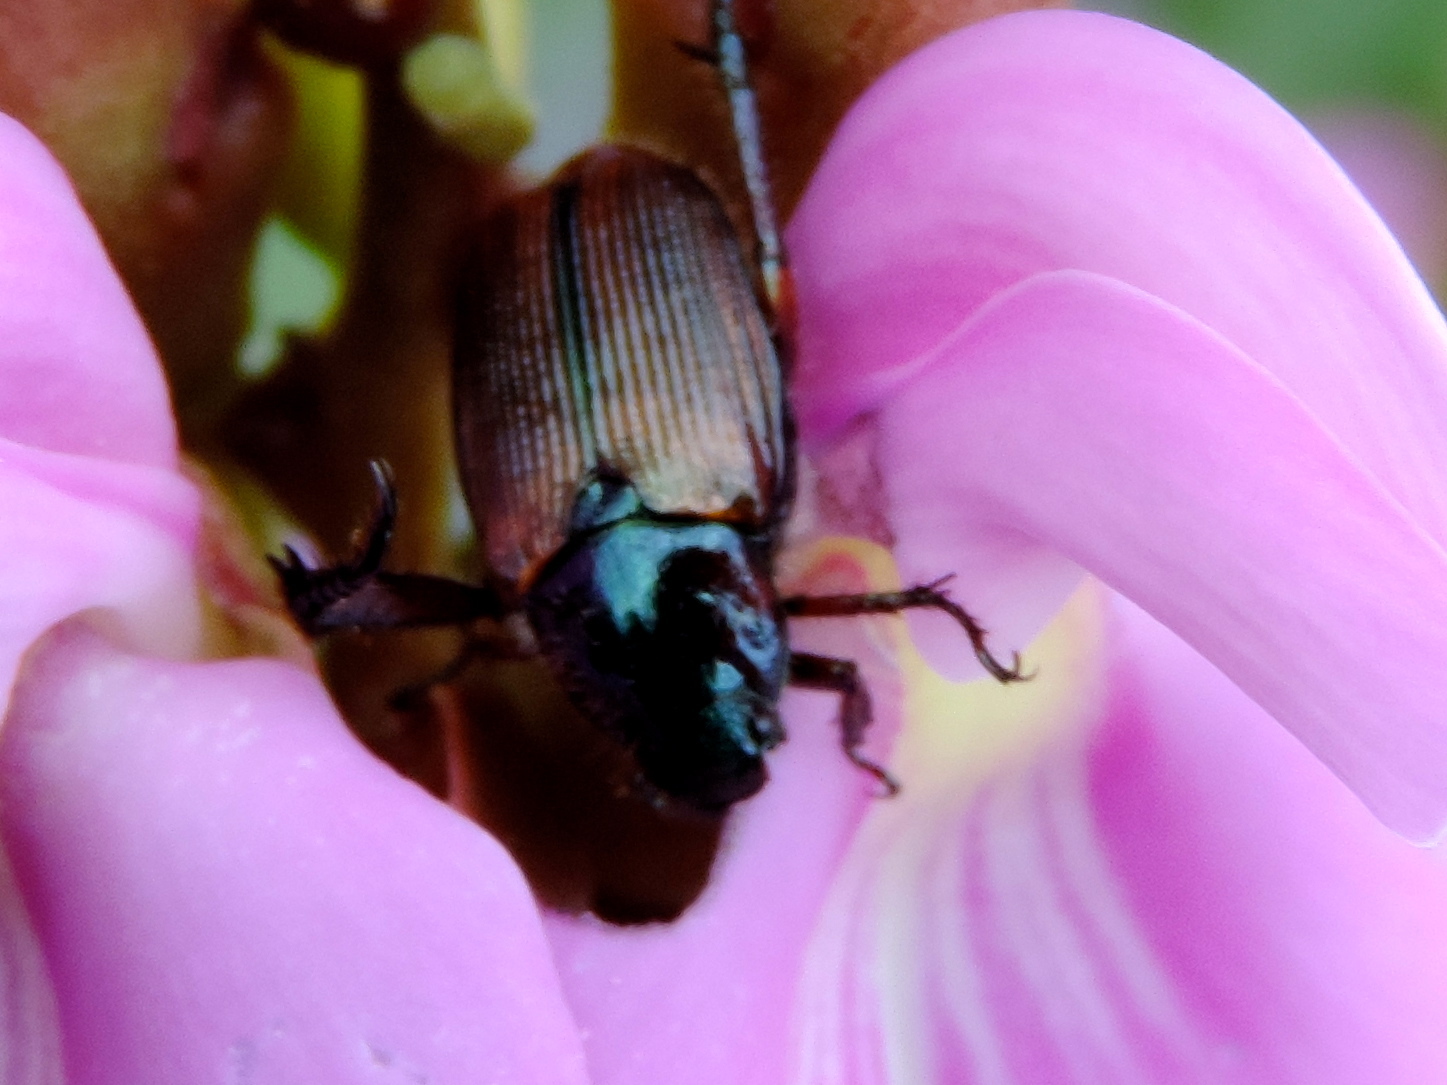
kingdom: Animalia
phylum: Arthropoda
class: Insecta
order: Coleoptera
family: Scarabaeidae
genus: Strigoderma
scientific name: Strigoderma
